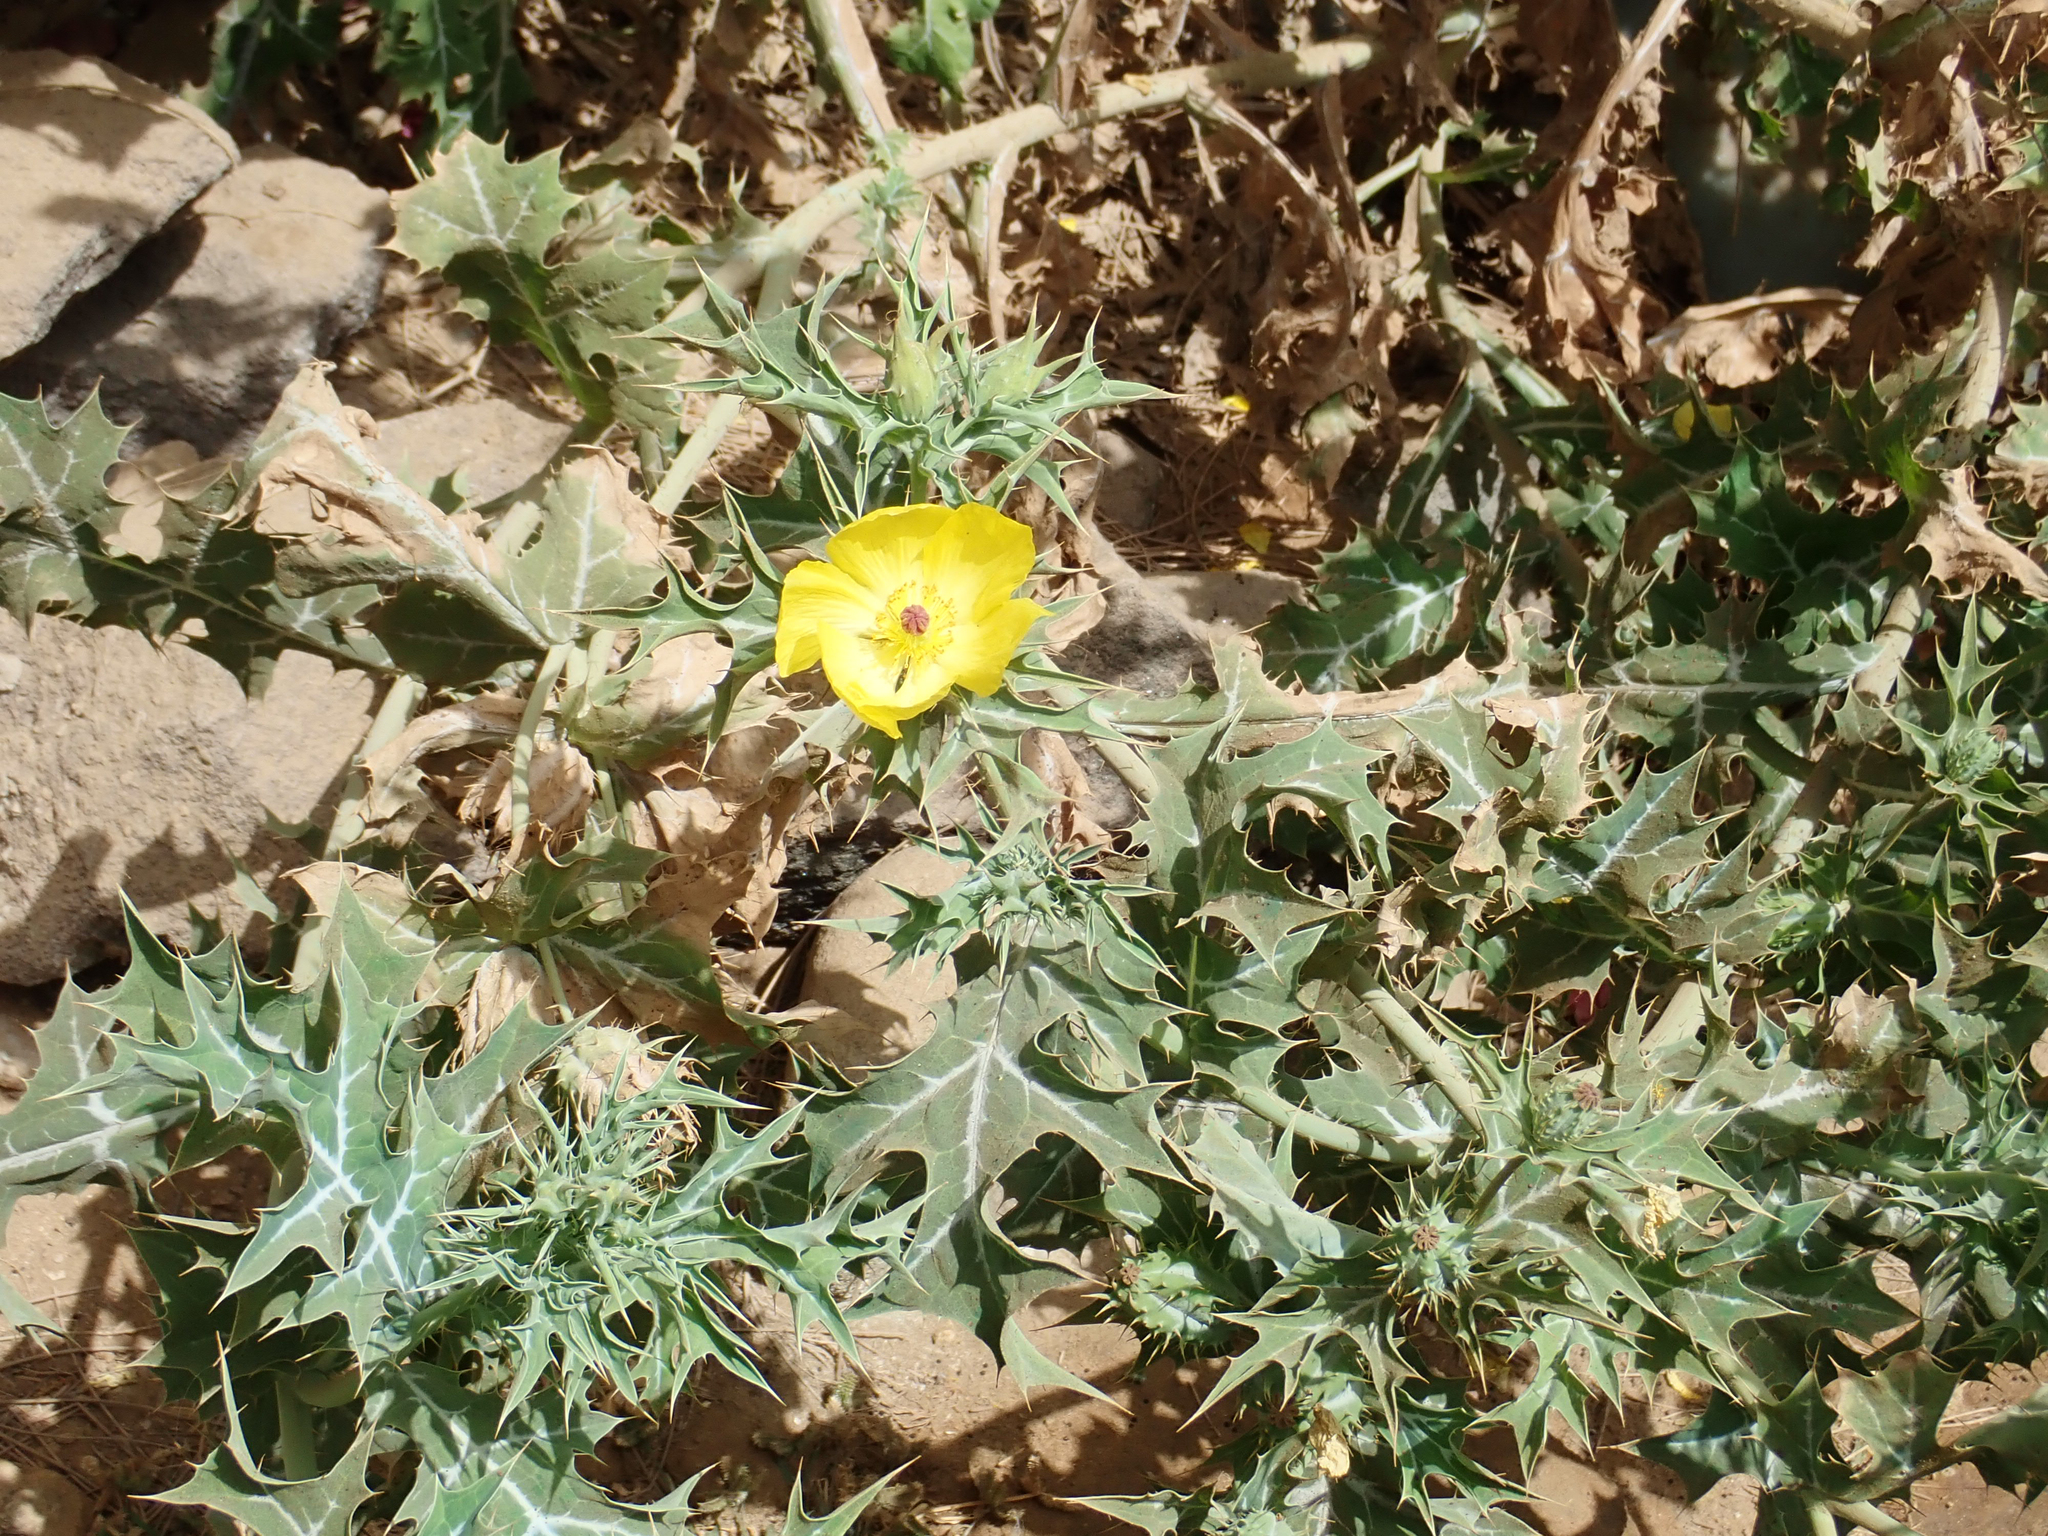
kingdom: Plantae
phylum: Tracheophyta
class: Magnoliopsida
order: Ranunculales
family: Papaveraceae
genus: Argemone
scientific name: Argemone mexicana
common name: Mexican poppy
